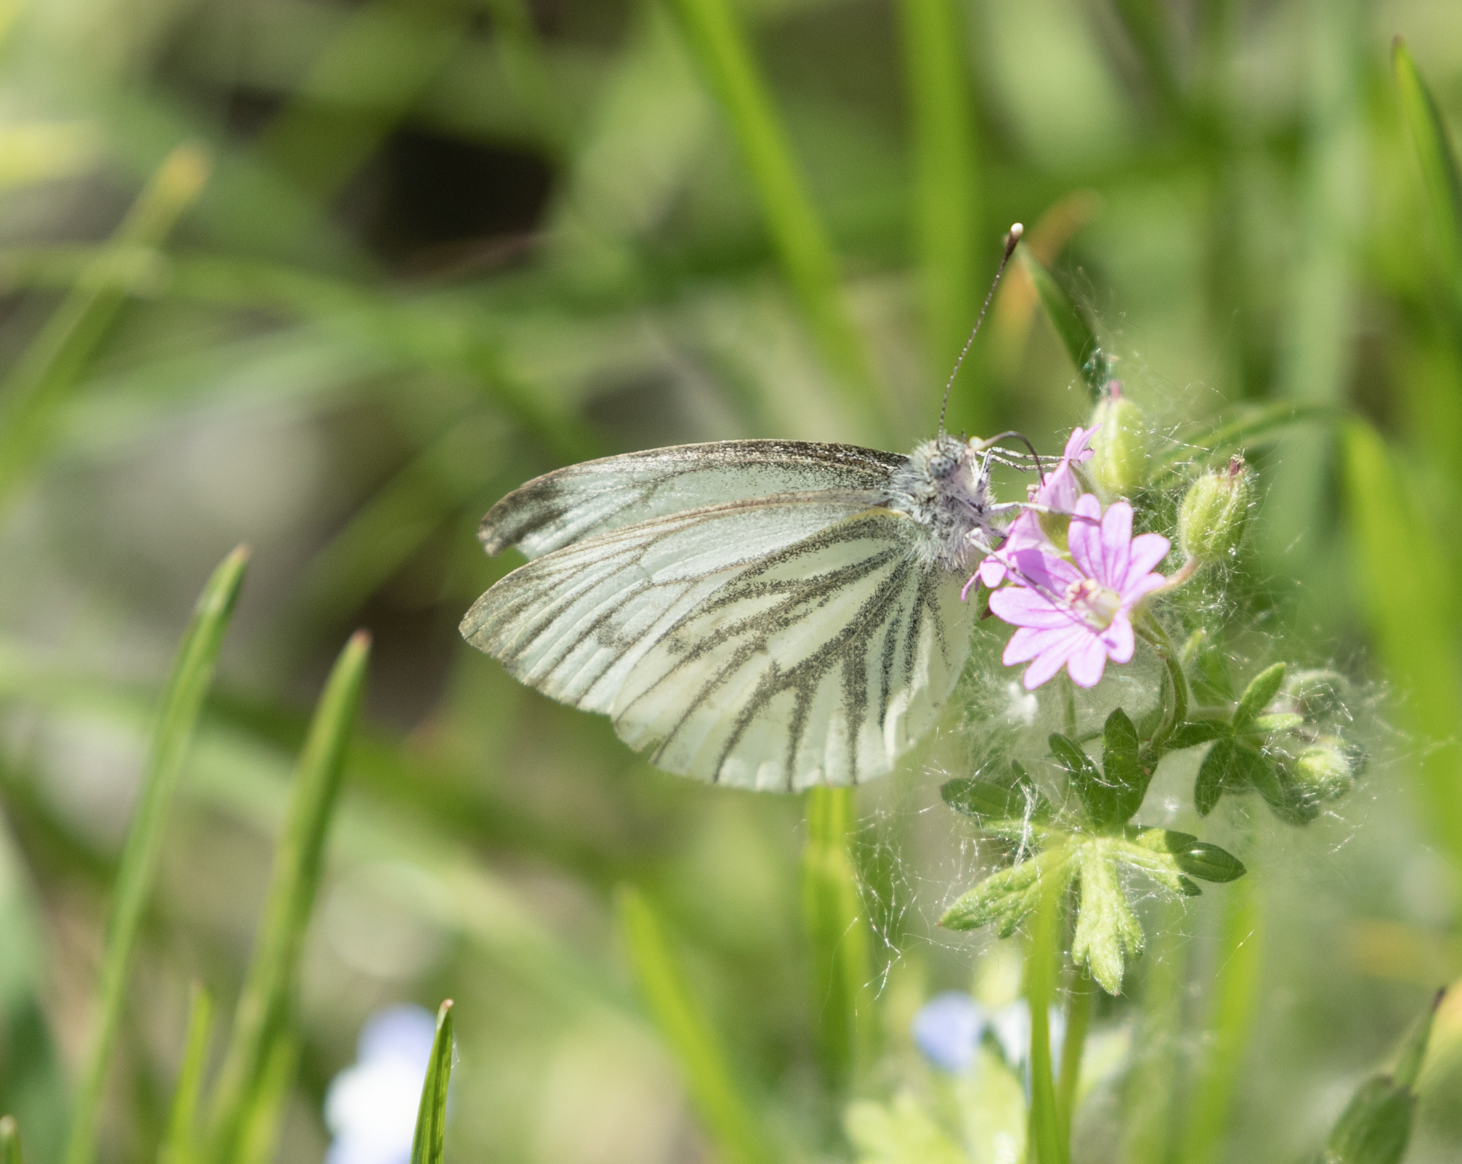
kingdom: Animalia
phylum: Arthropoda
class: Insecta
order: Lepidoptera
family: Pieridae
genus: Pieris
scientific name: Pieris napi
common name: Green-veined white
